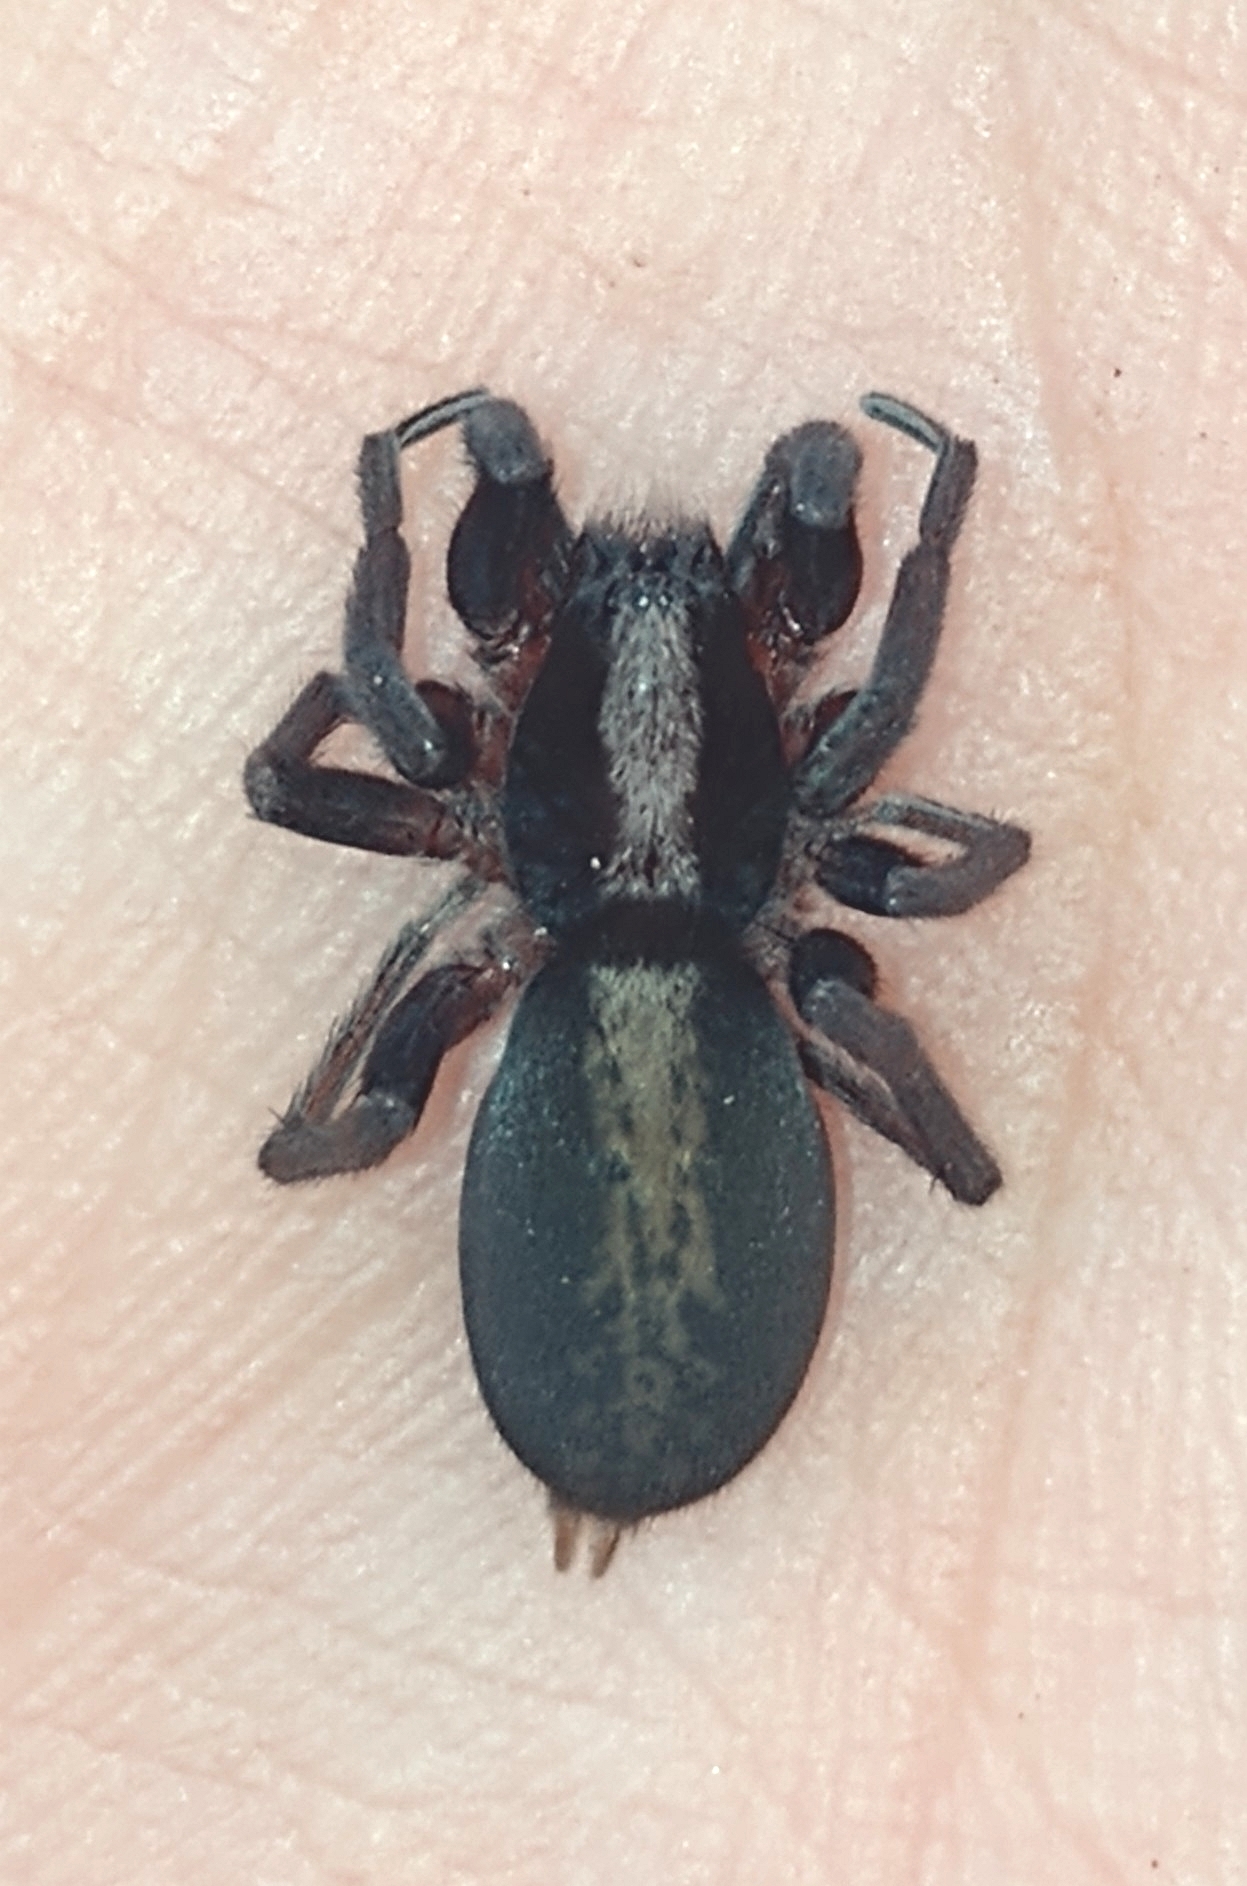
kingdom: Animalia
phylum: Arthropoda
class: Arachnida
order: Araneae
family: Miturgidae
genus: Teminius
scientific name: Teminius insularis
